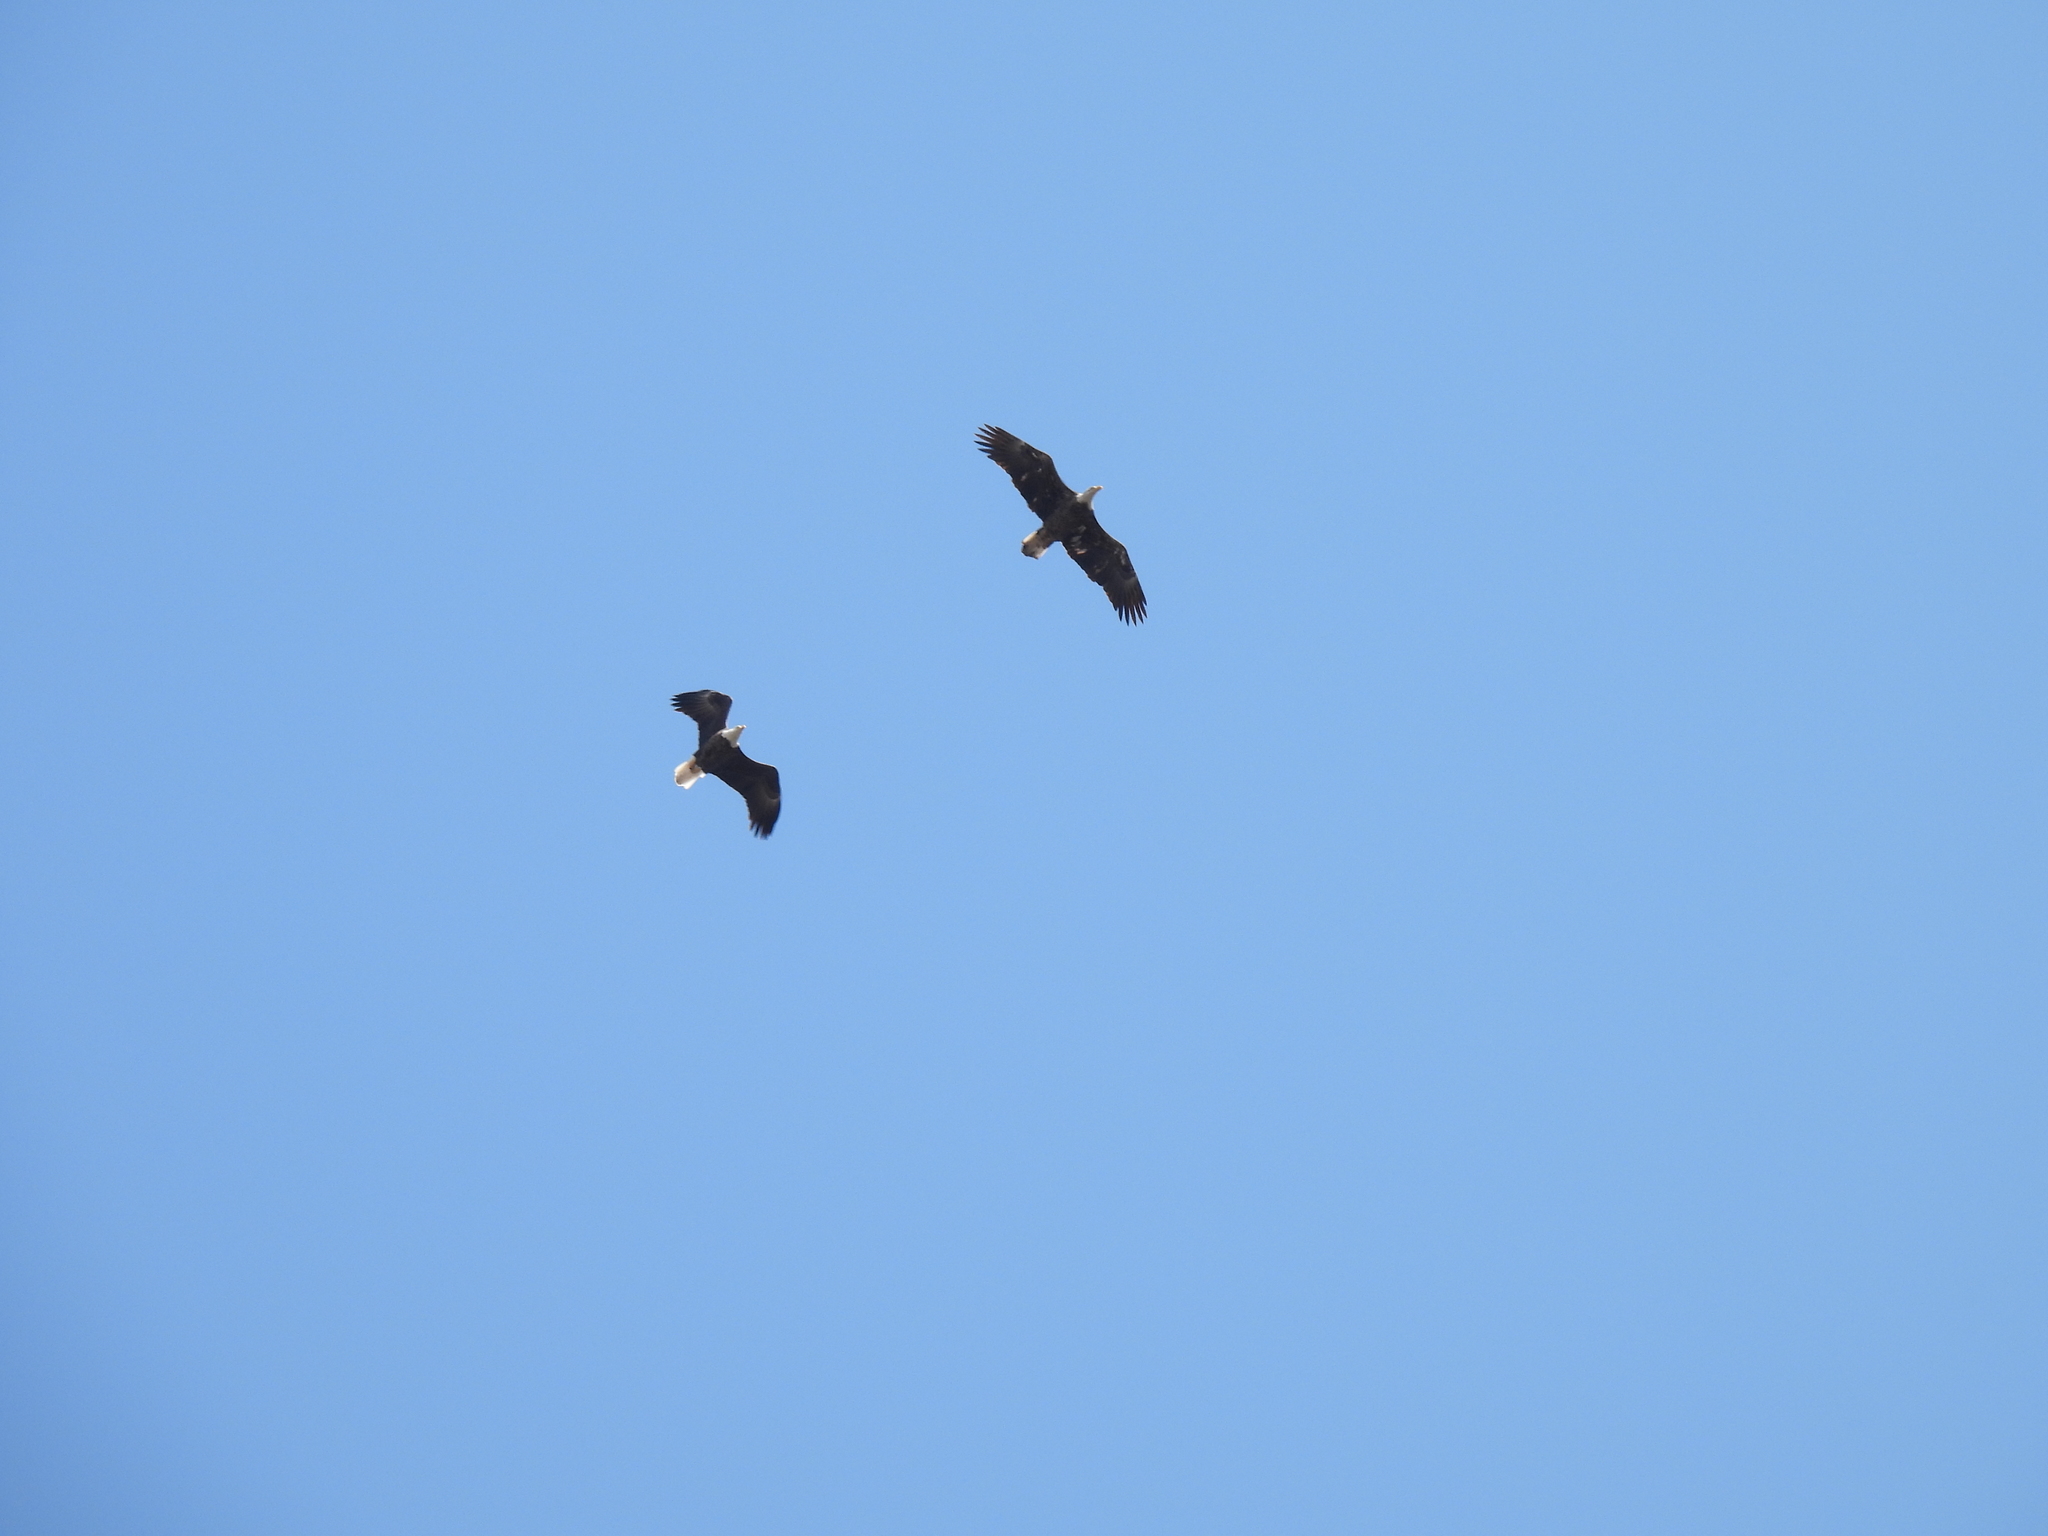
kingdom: Animalia
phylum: Chordata
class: Aves
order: Accipitriformes
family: Accipitridae
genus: Haliaeetus
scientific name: Haliaeetus leucocephalus
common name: Bald eagle
